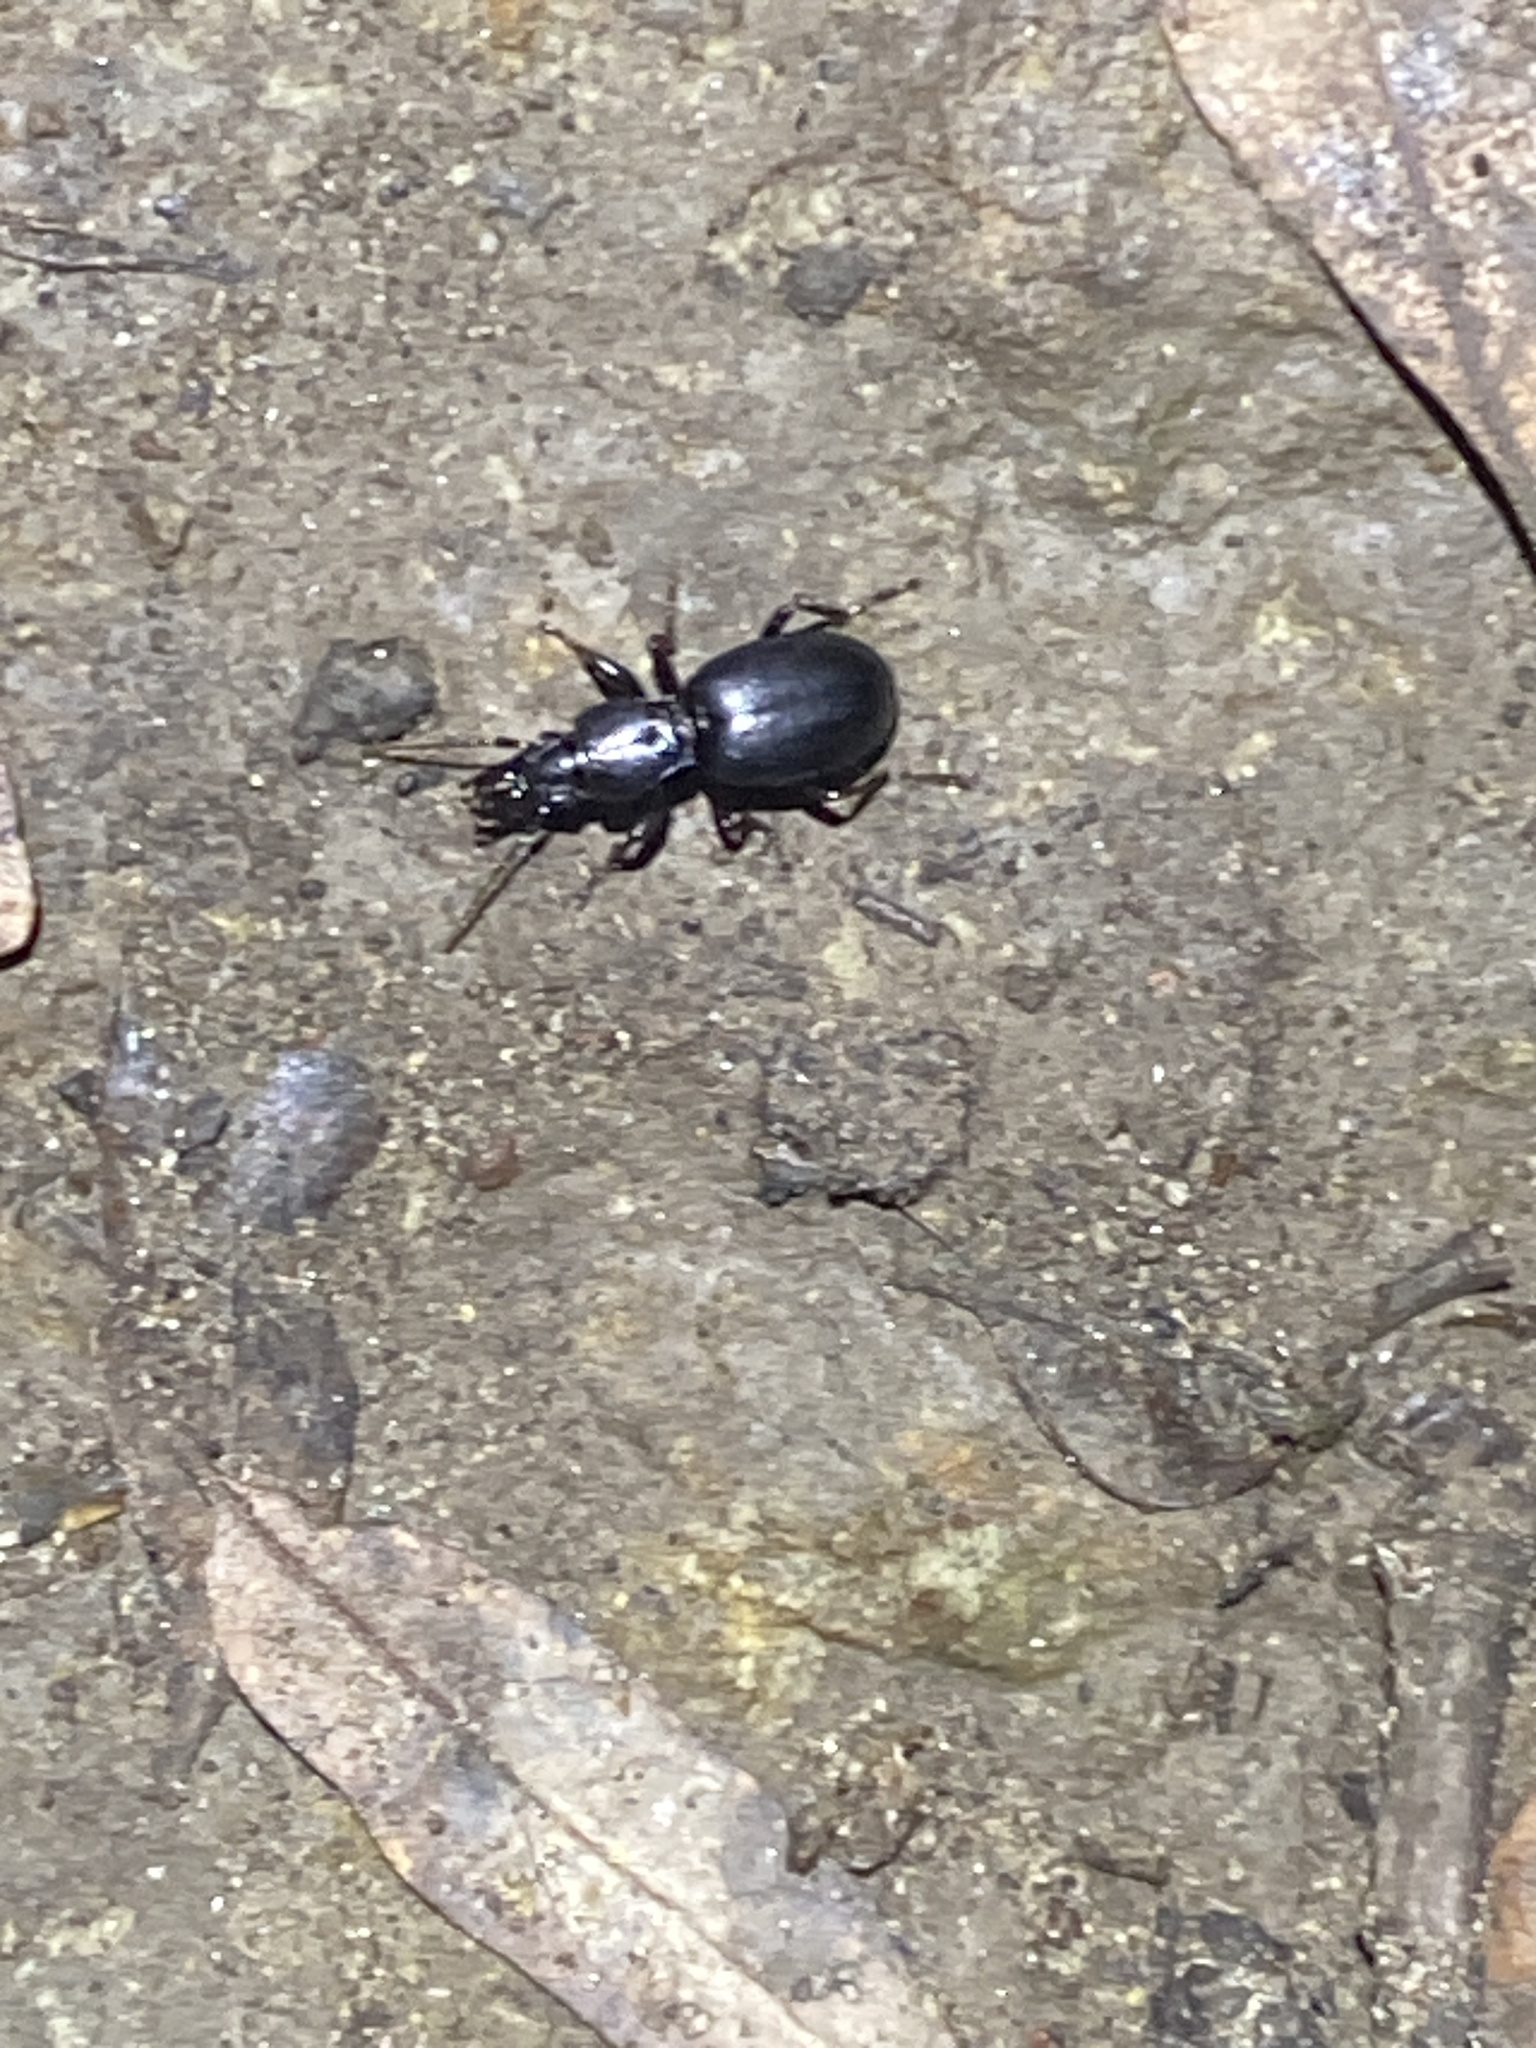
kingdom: Animalia
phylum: Arthropoda
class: Insecta
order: Coleoptera
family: Carabidae
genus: Promecognathus
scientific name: Promecognathus
